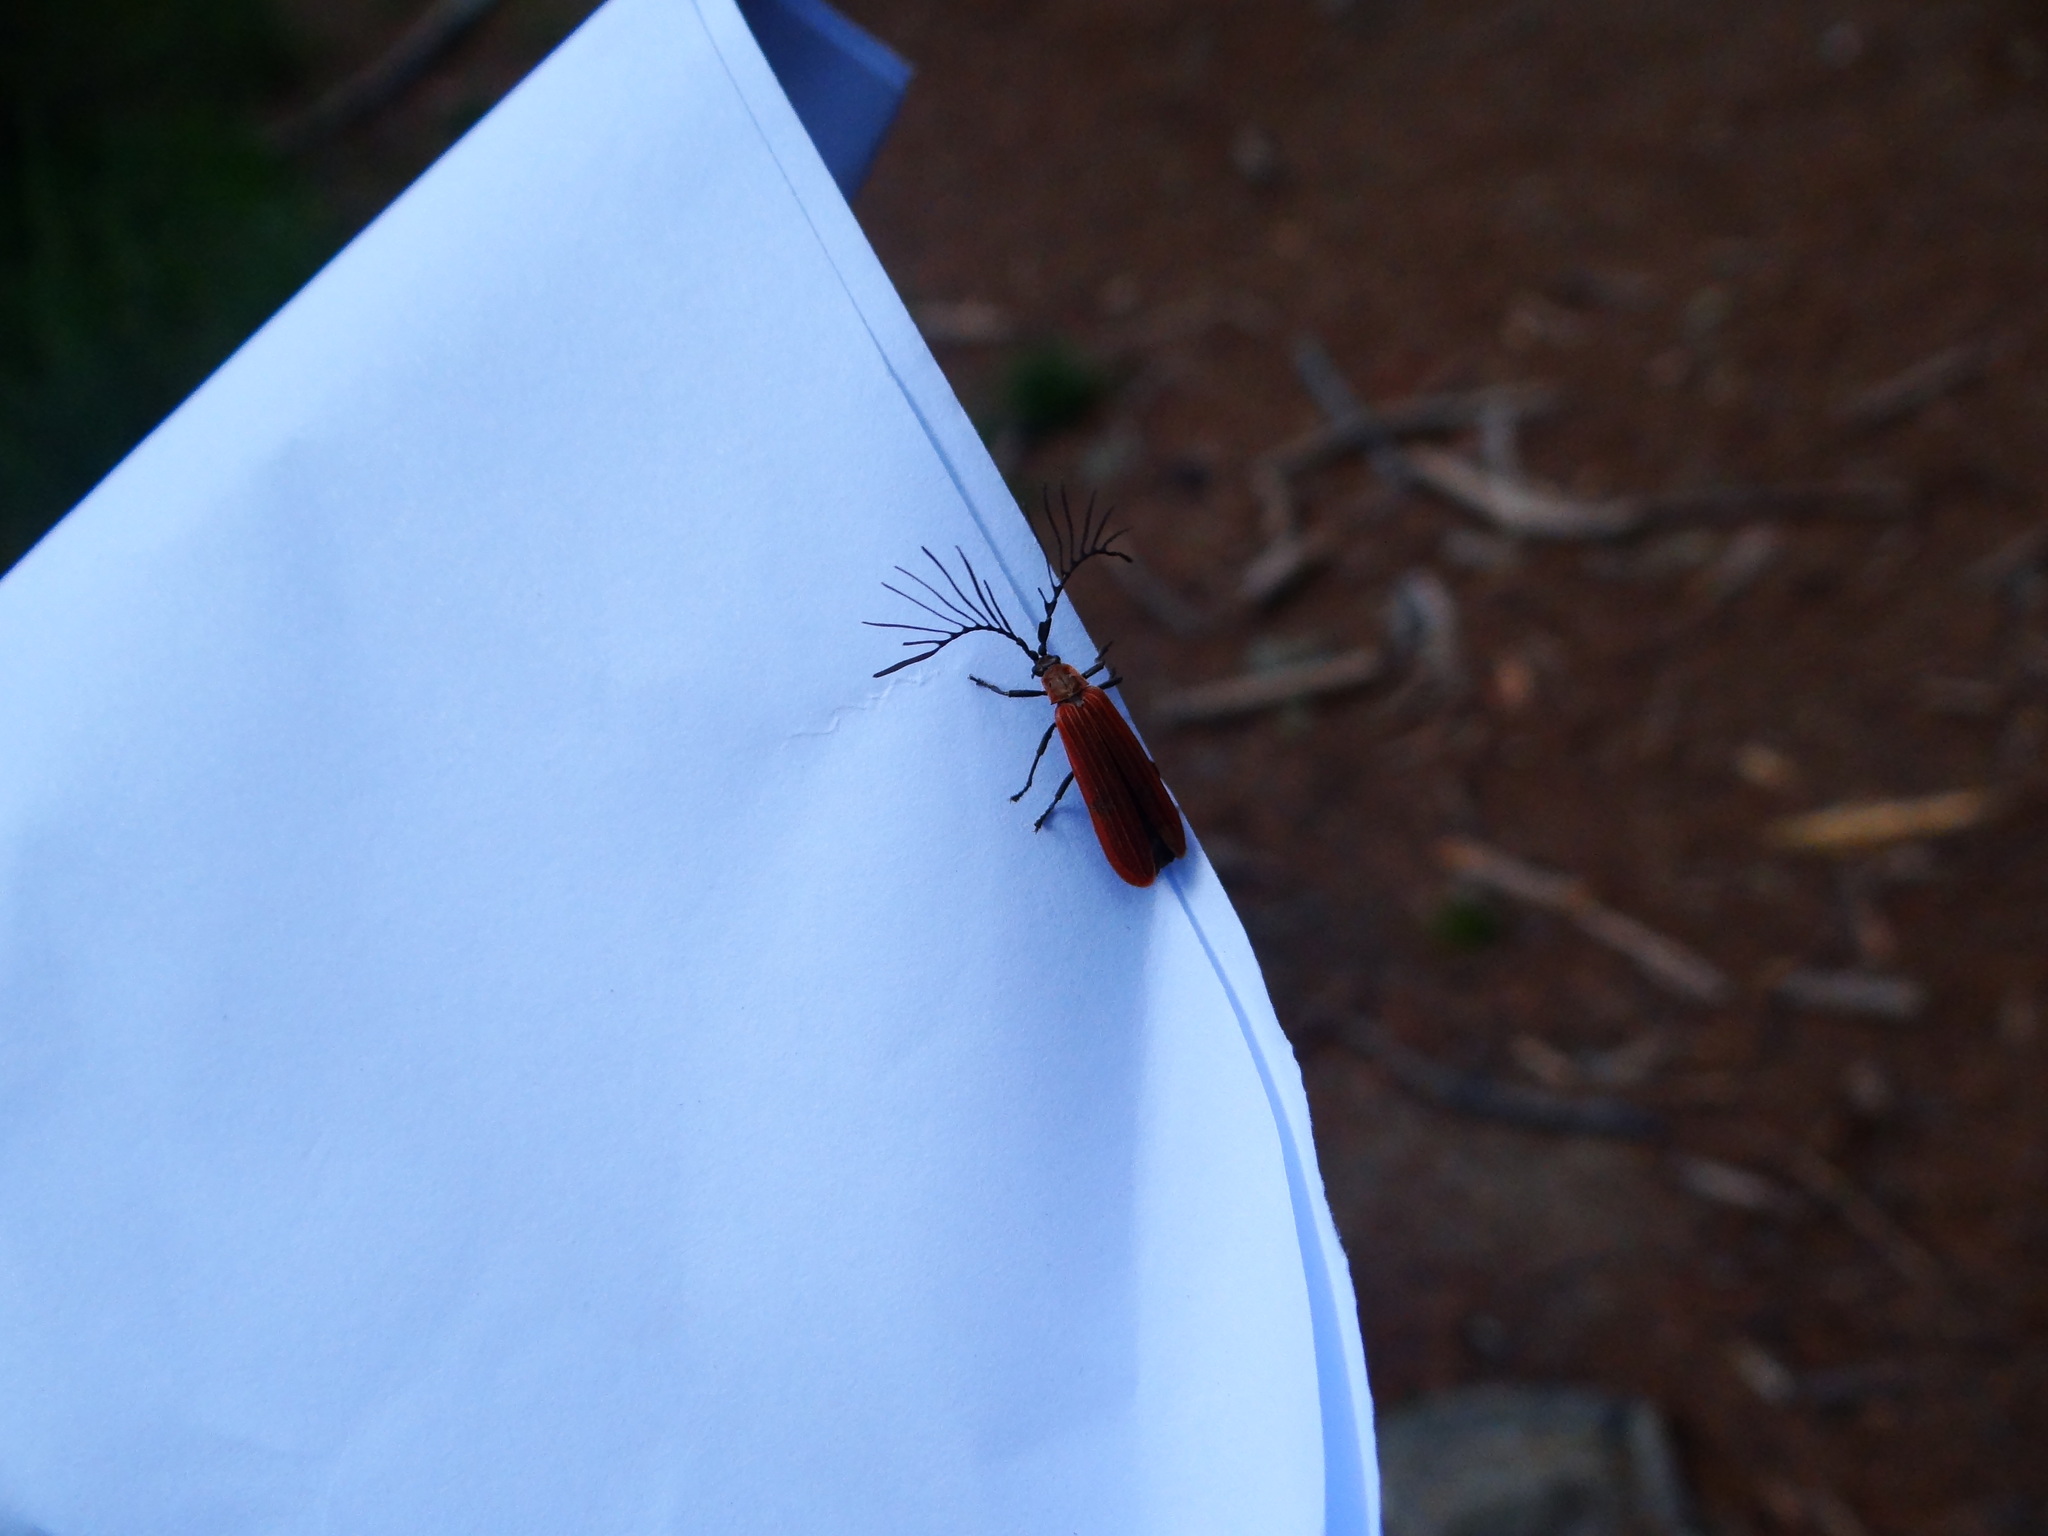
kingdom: Animalia
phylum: Arthropoda
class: Insecta
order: Coleoptera
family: Lycidae
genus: Ponyalis
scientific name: Ponyalis dolosa
